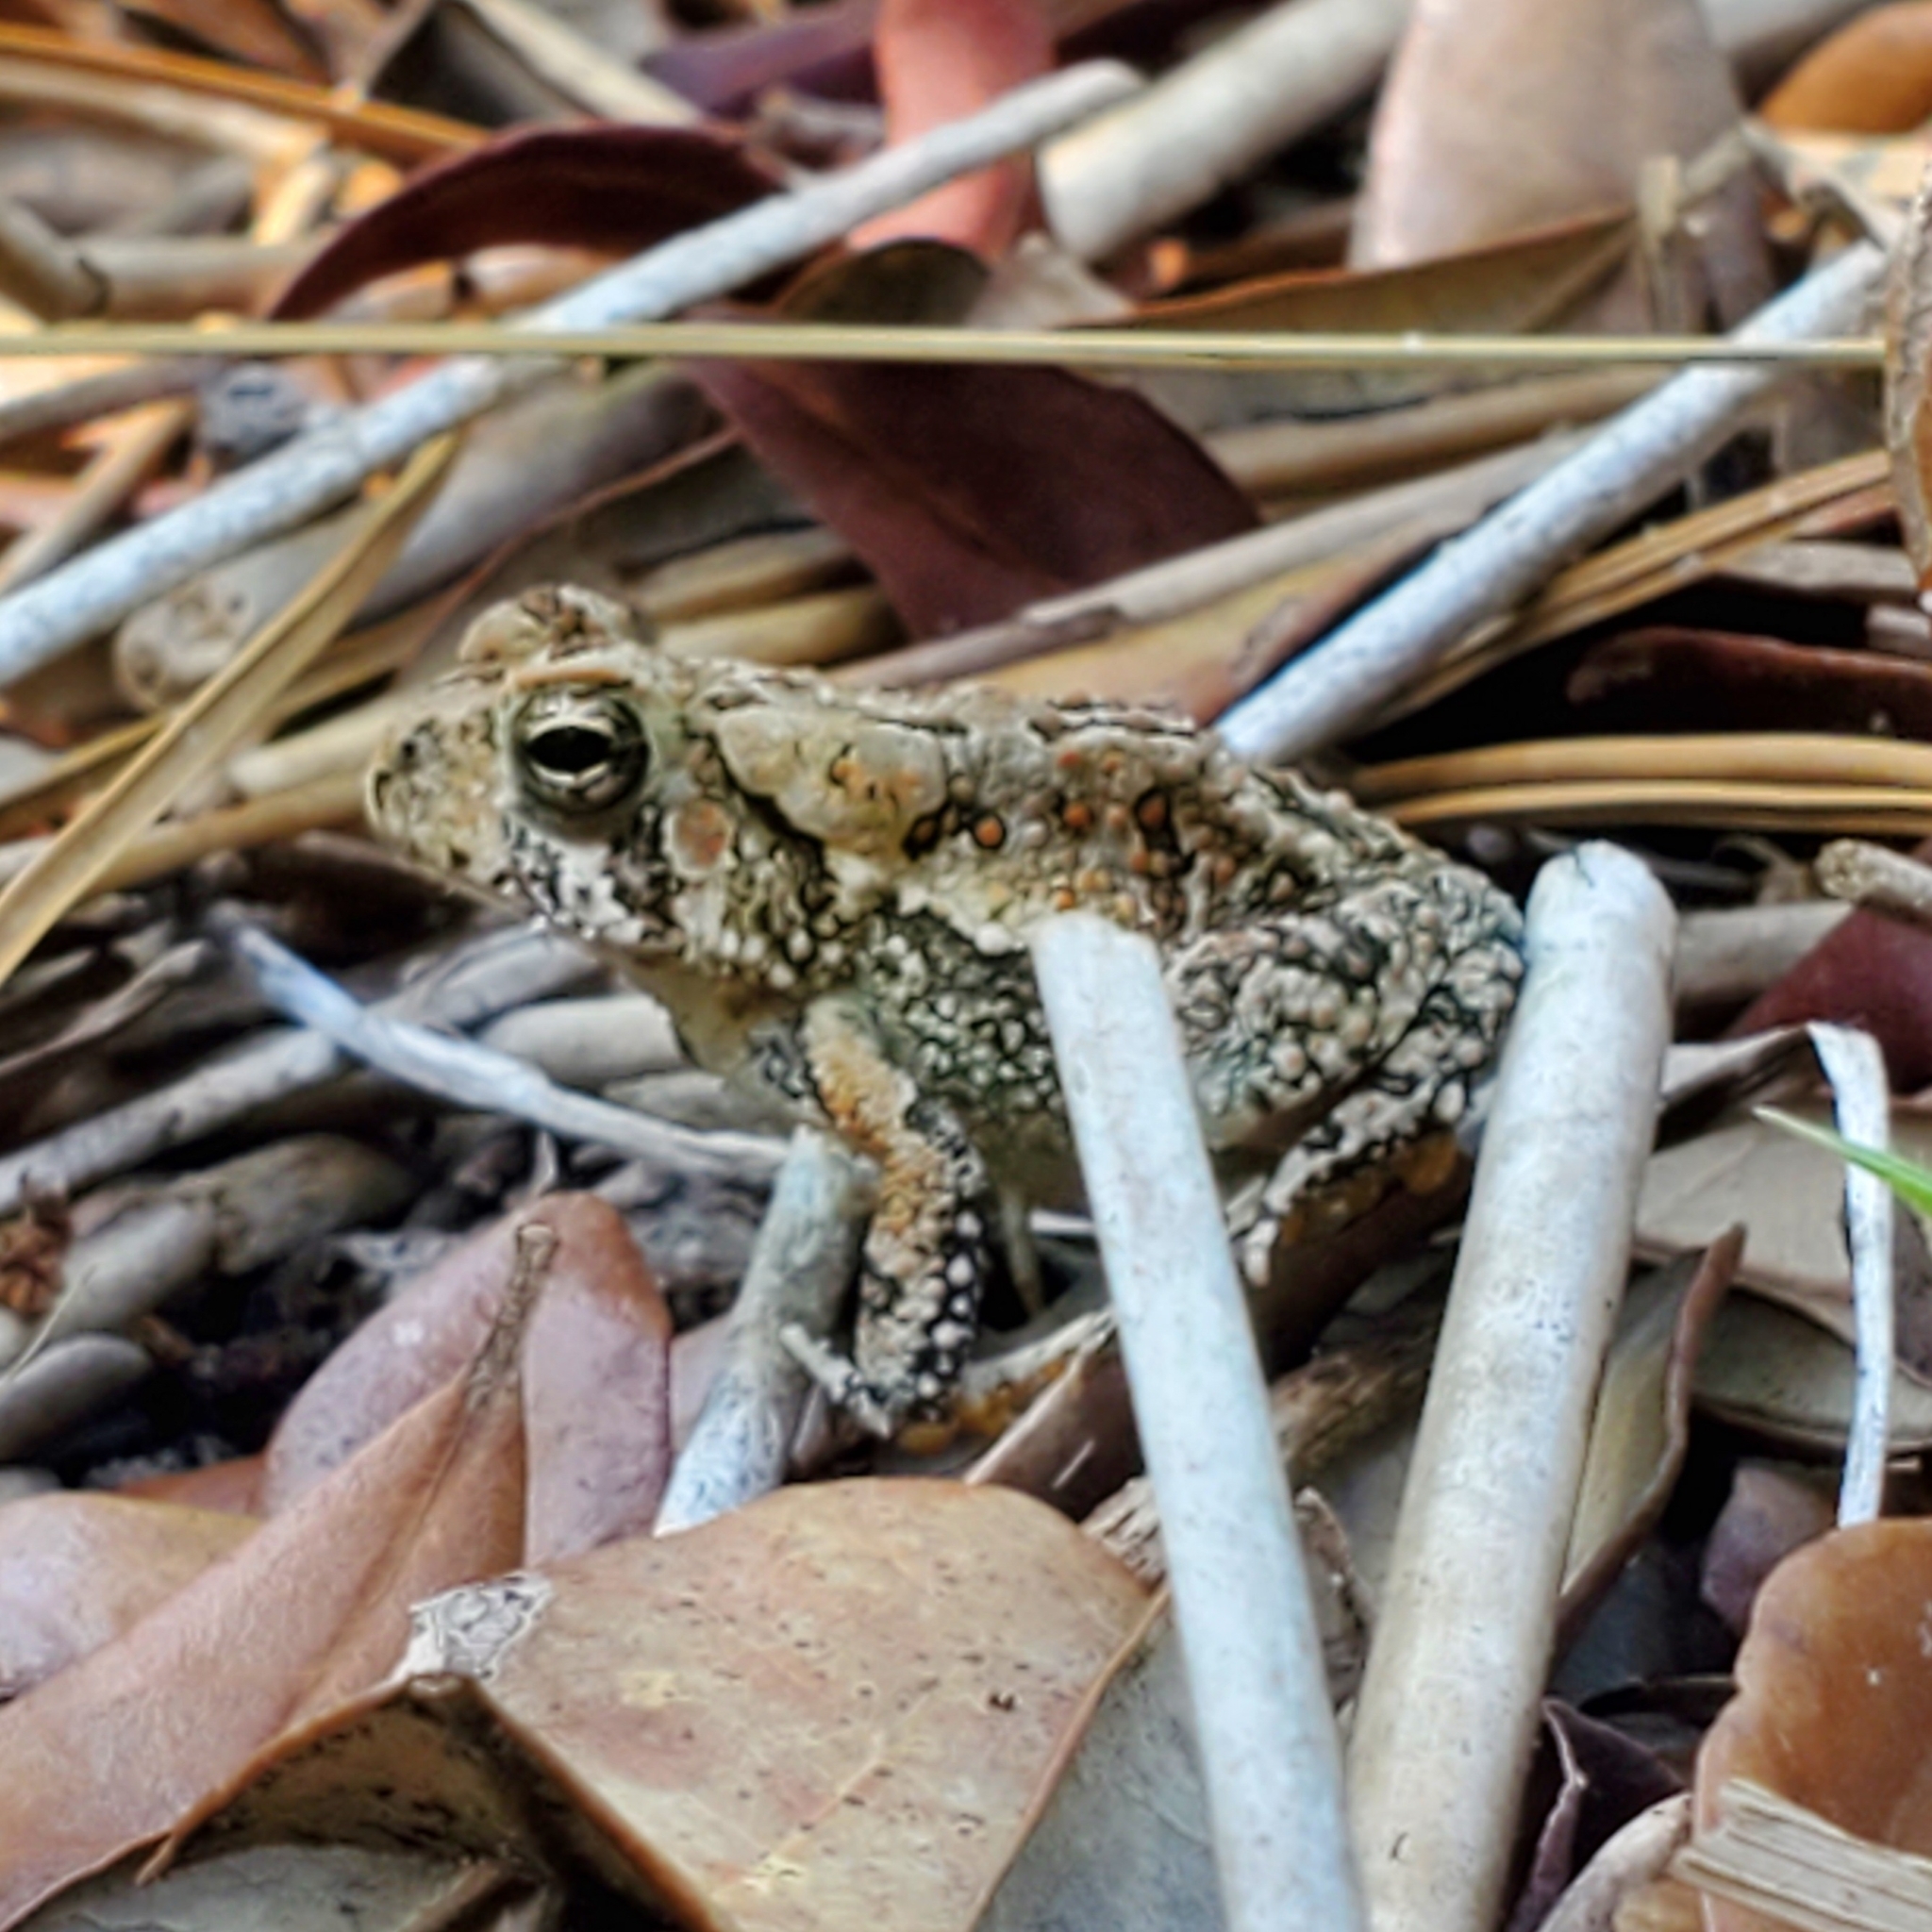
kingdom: Animalia
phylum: Chordata
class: Amphibia
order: Anura
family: Bufonidae
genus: Anaxyrus
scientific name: Anaxyrus fowleri
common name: Fowler's toad
